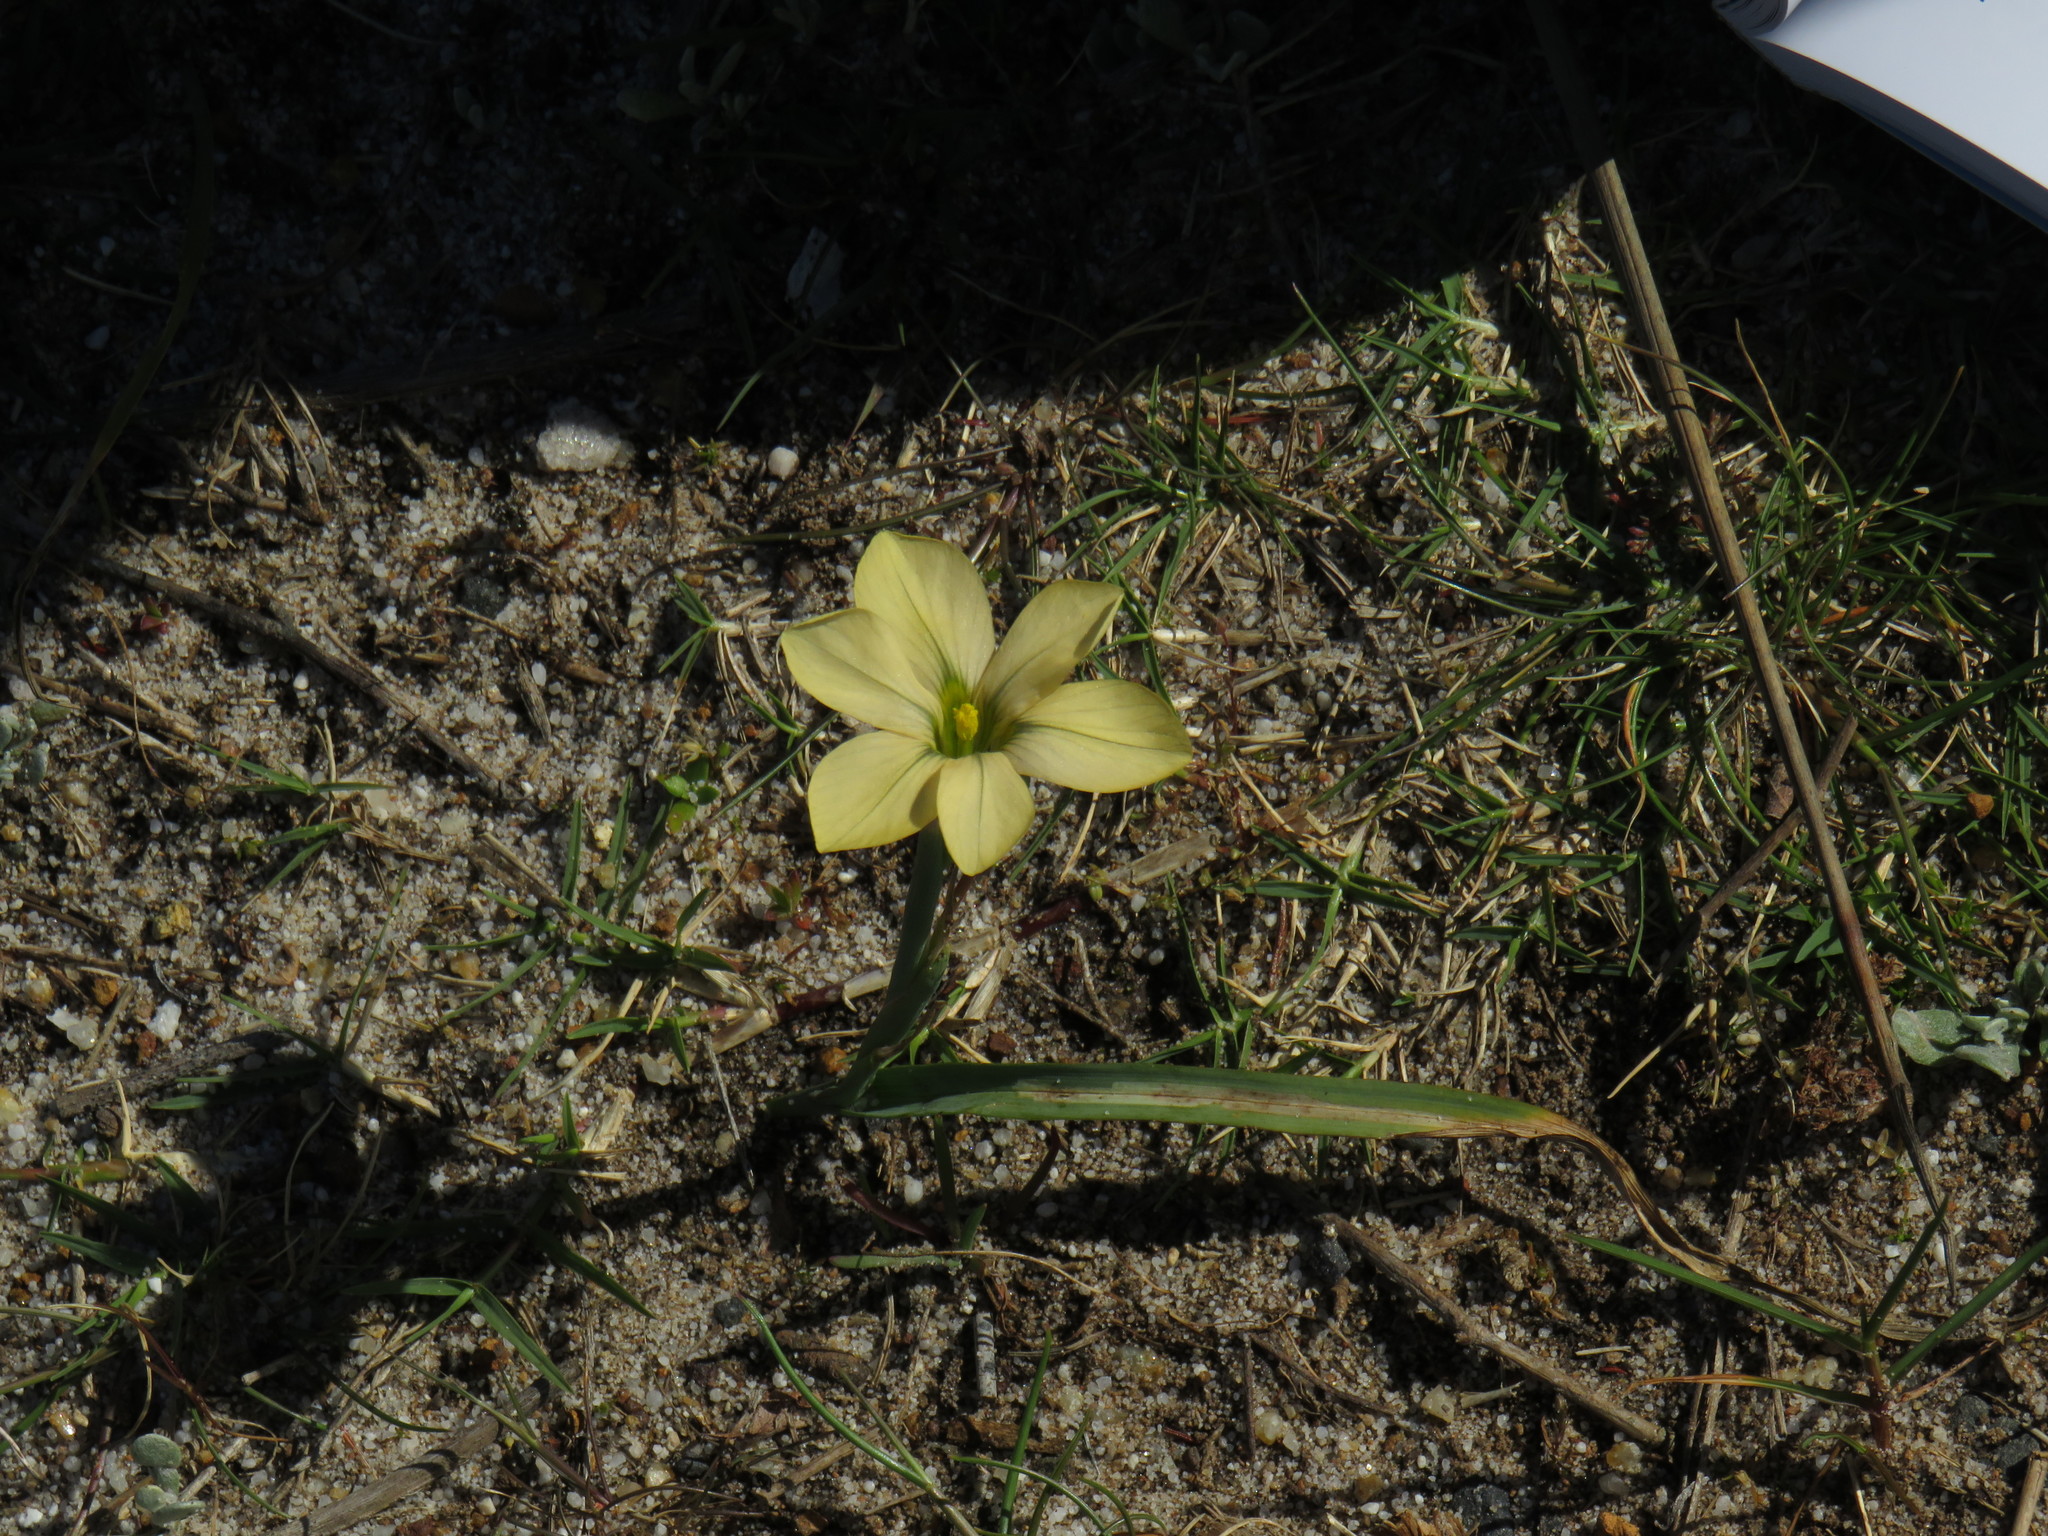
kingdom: Plantae
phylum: Tracheophyta
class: Liliopsida
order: Asparagales
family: Iridaceae
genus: Moraea
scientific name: Moraea collina
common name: Cape-tulip
